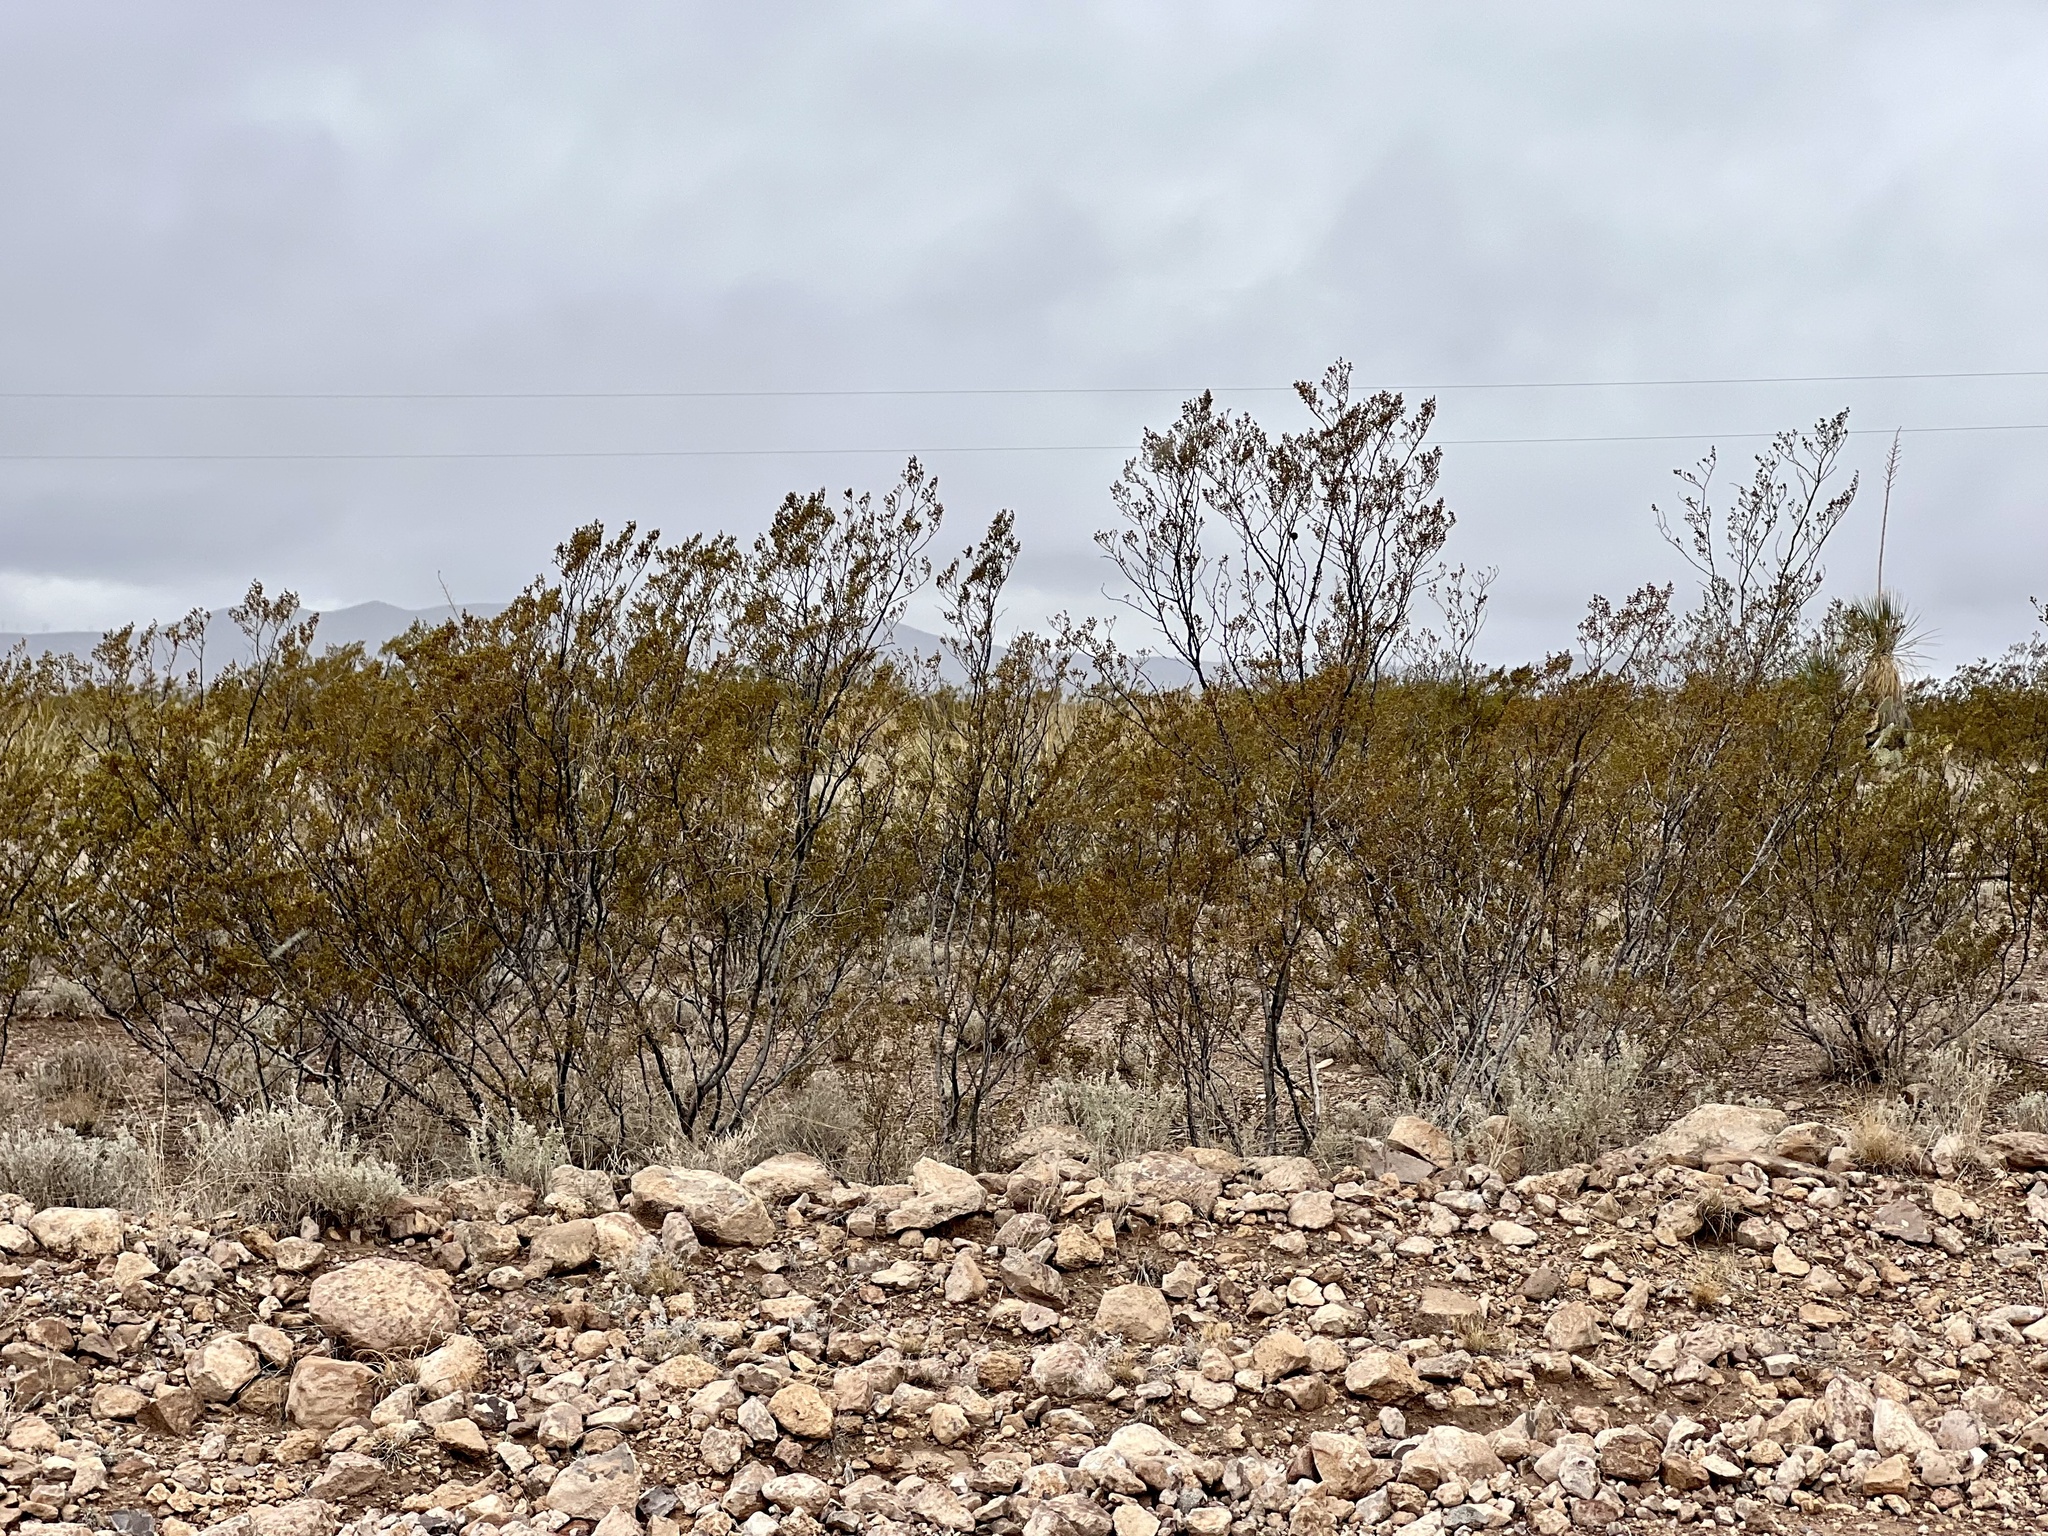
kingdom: Plantae
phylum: Tracheophyta
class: Magnoliopsida
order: Zygophyllales
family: Zygophyllaceae
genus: Larrea
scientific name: Larrea tridentata
